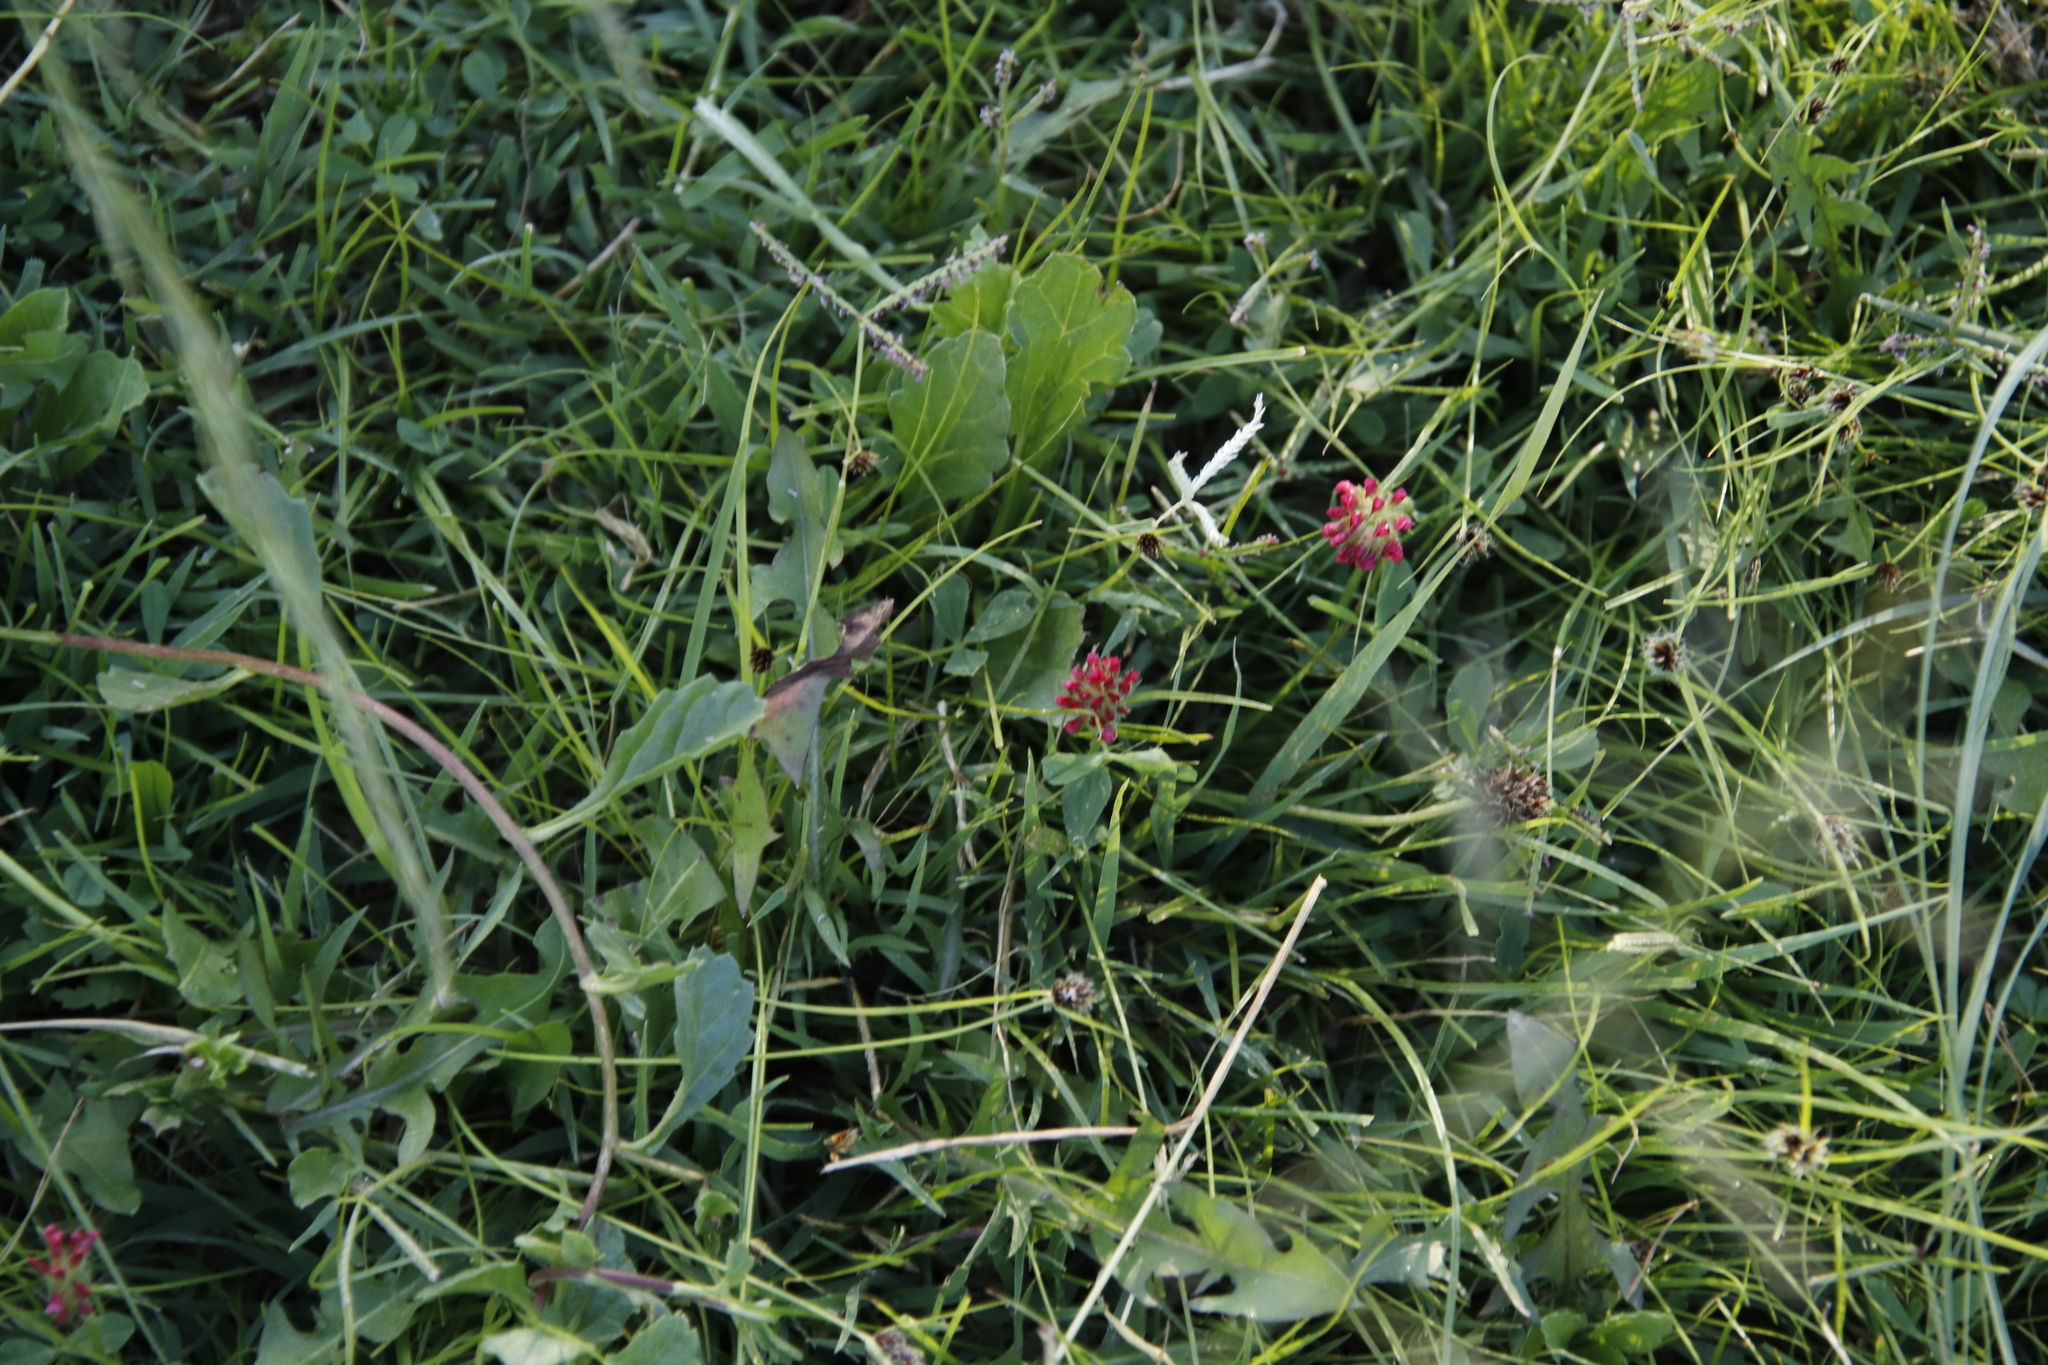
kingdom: Plantae
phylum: Tracheophyta
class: Magnoliopsida
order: Fabales
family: Fabaceae
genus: Trifolium
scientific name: Trifolium burchellianum
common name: Burchell's clover
